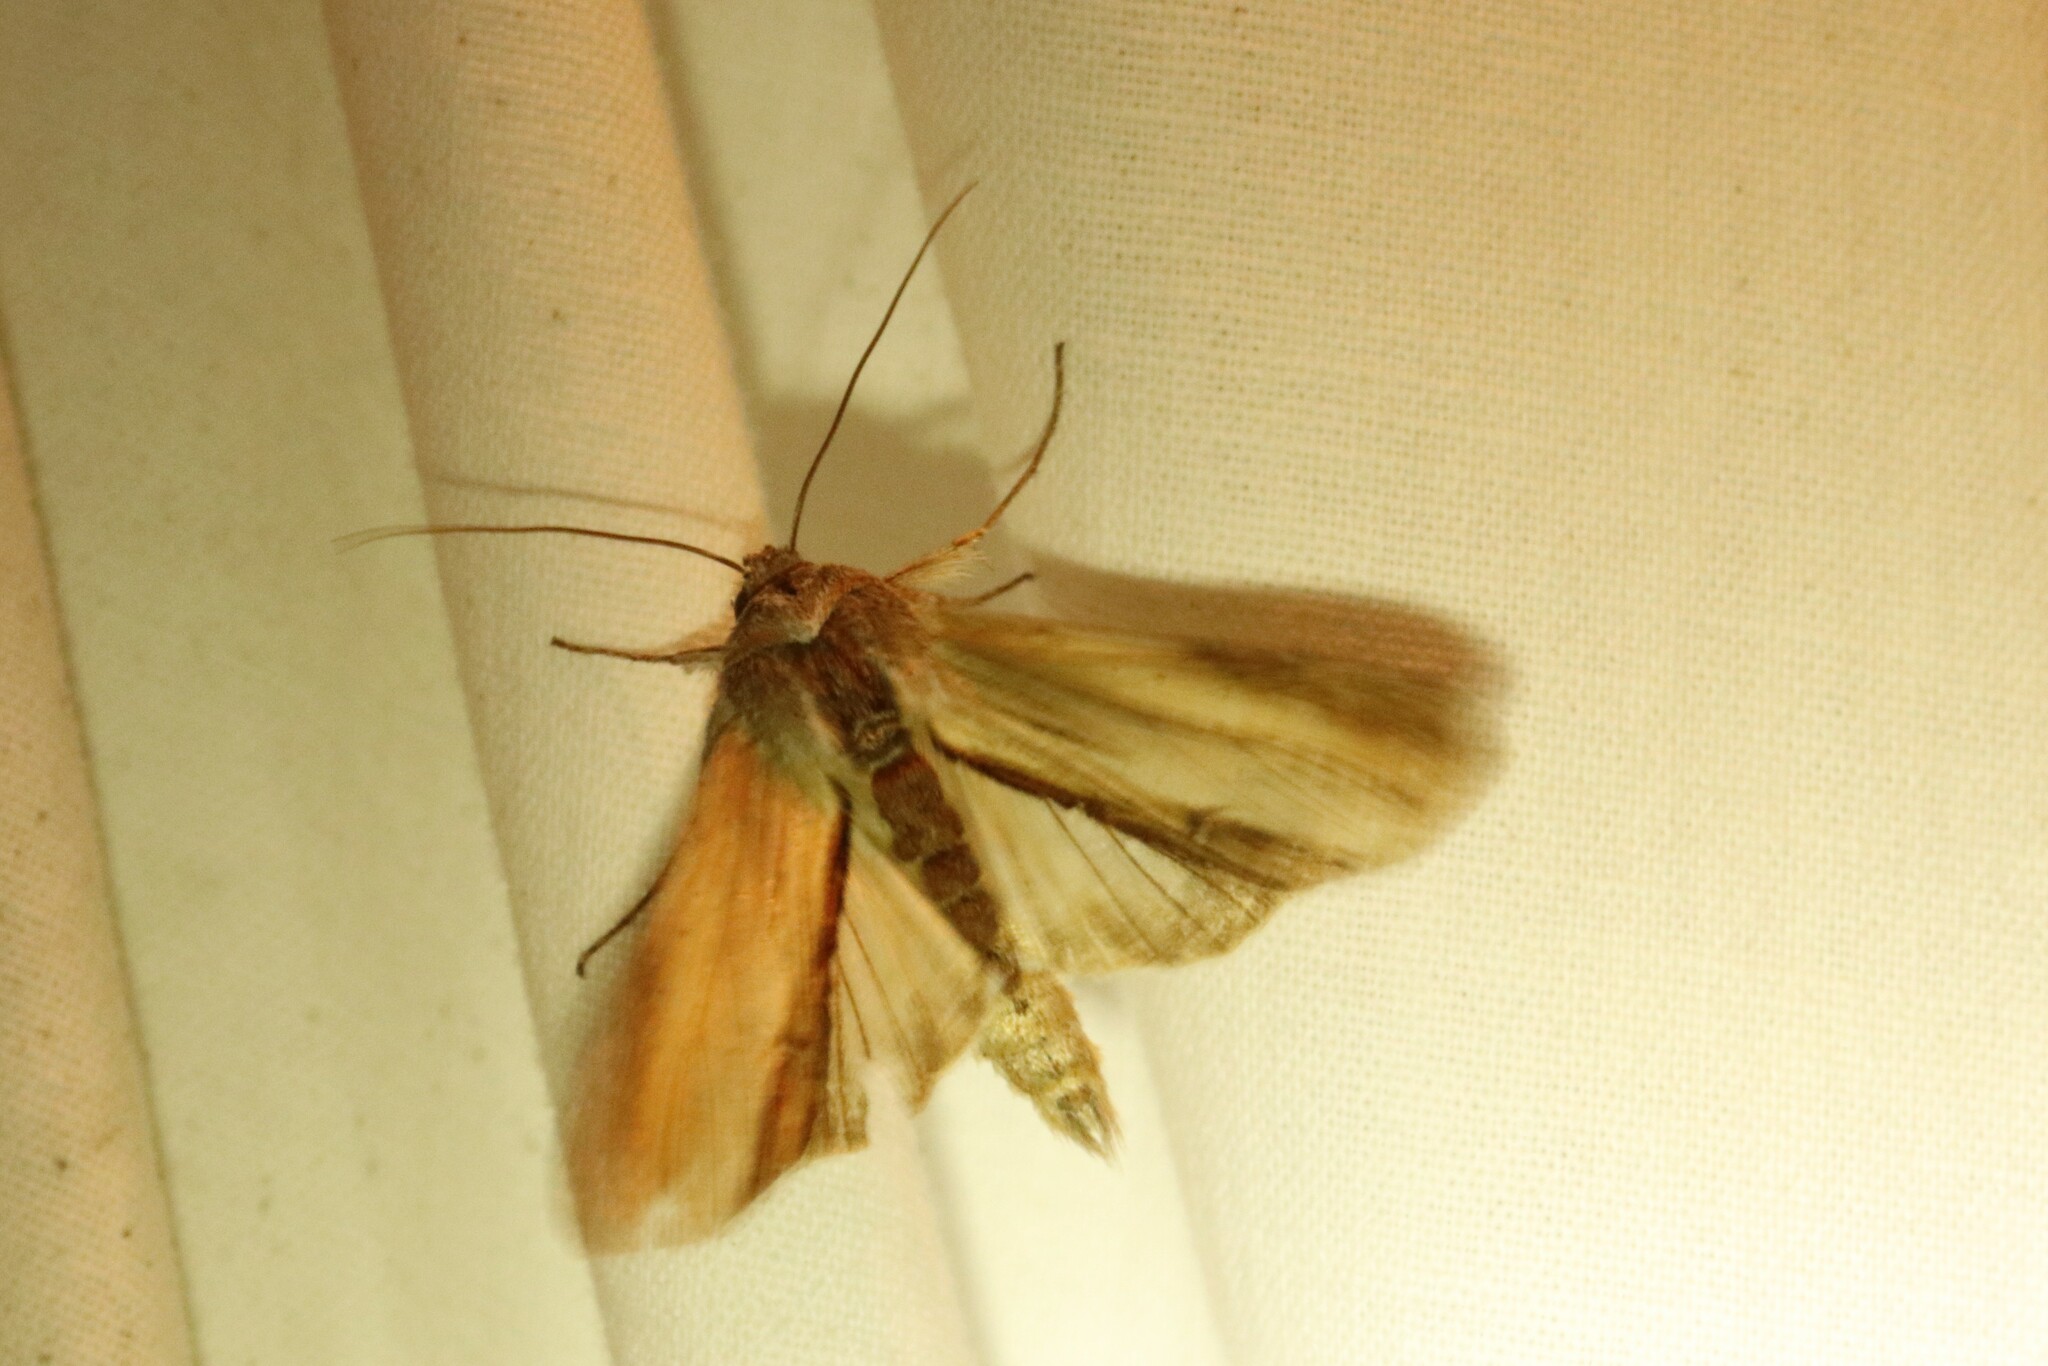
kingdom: Animalia
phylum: Arthropoda
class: Insecta
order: Lepidoptera
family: Noctuidae
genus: Cucullia
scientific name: Cucullia convexipennis
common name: Brown-hooded owlet
